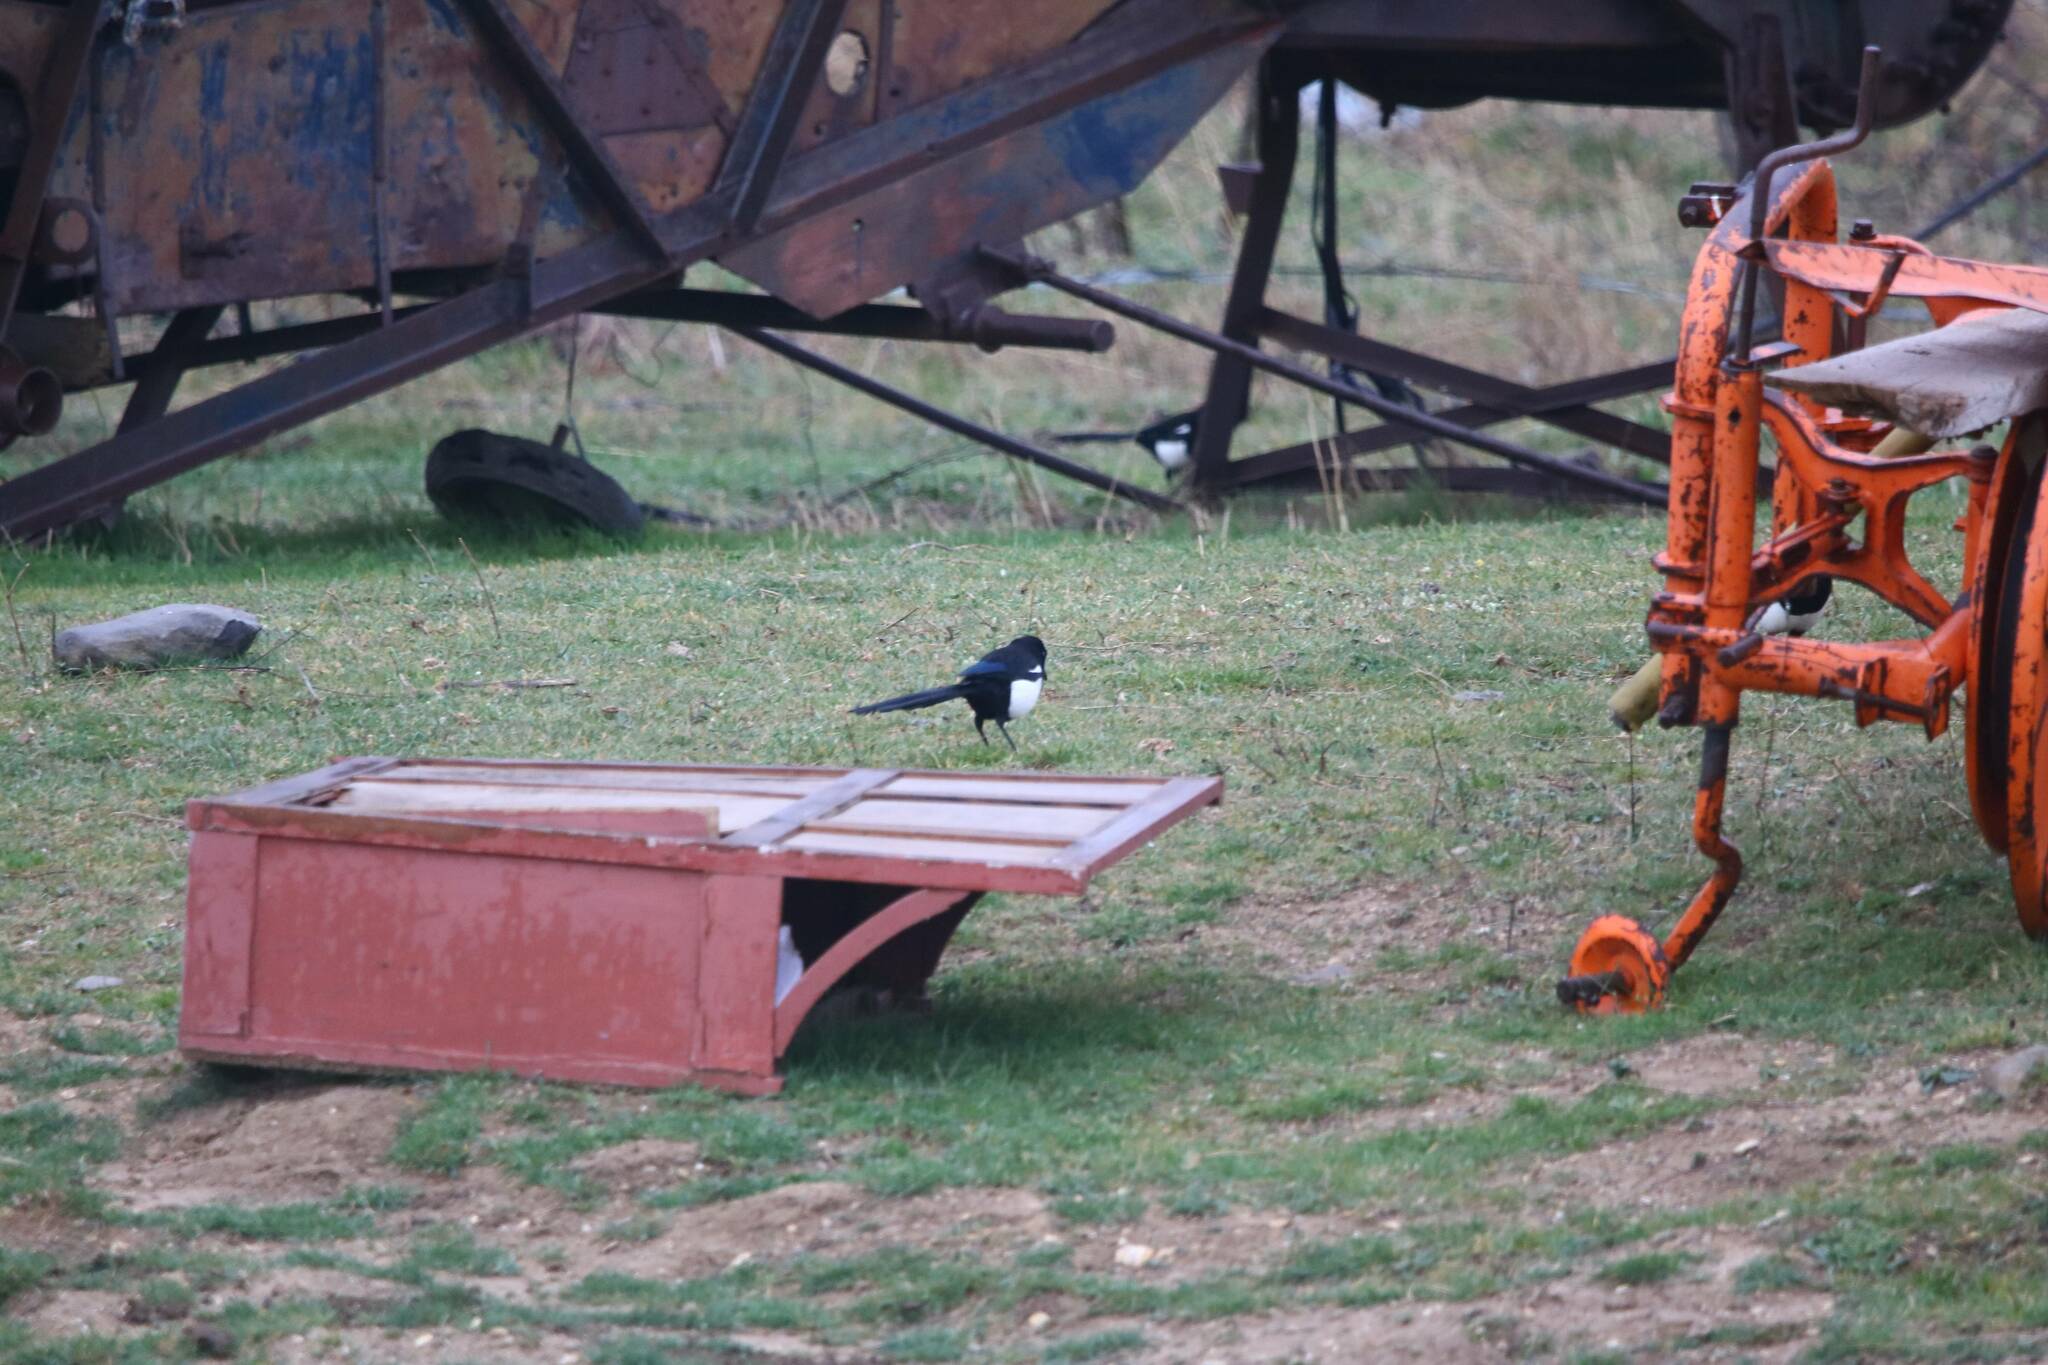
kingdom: Animalia
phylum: Chordata
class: Aves
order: Passeriformes
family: Corvidae
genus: Pica
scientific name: Pica mauritanica
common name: Maghreb magpie
